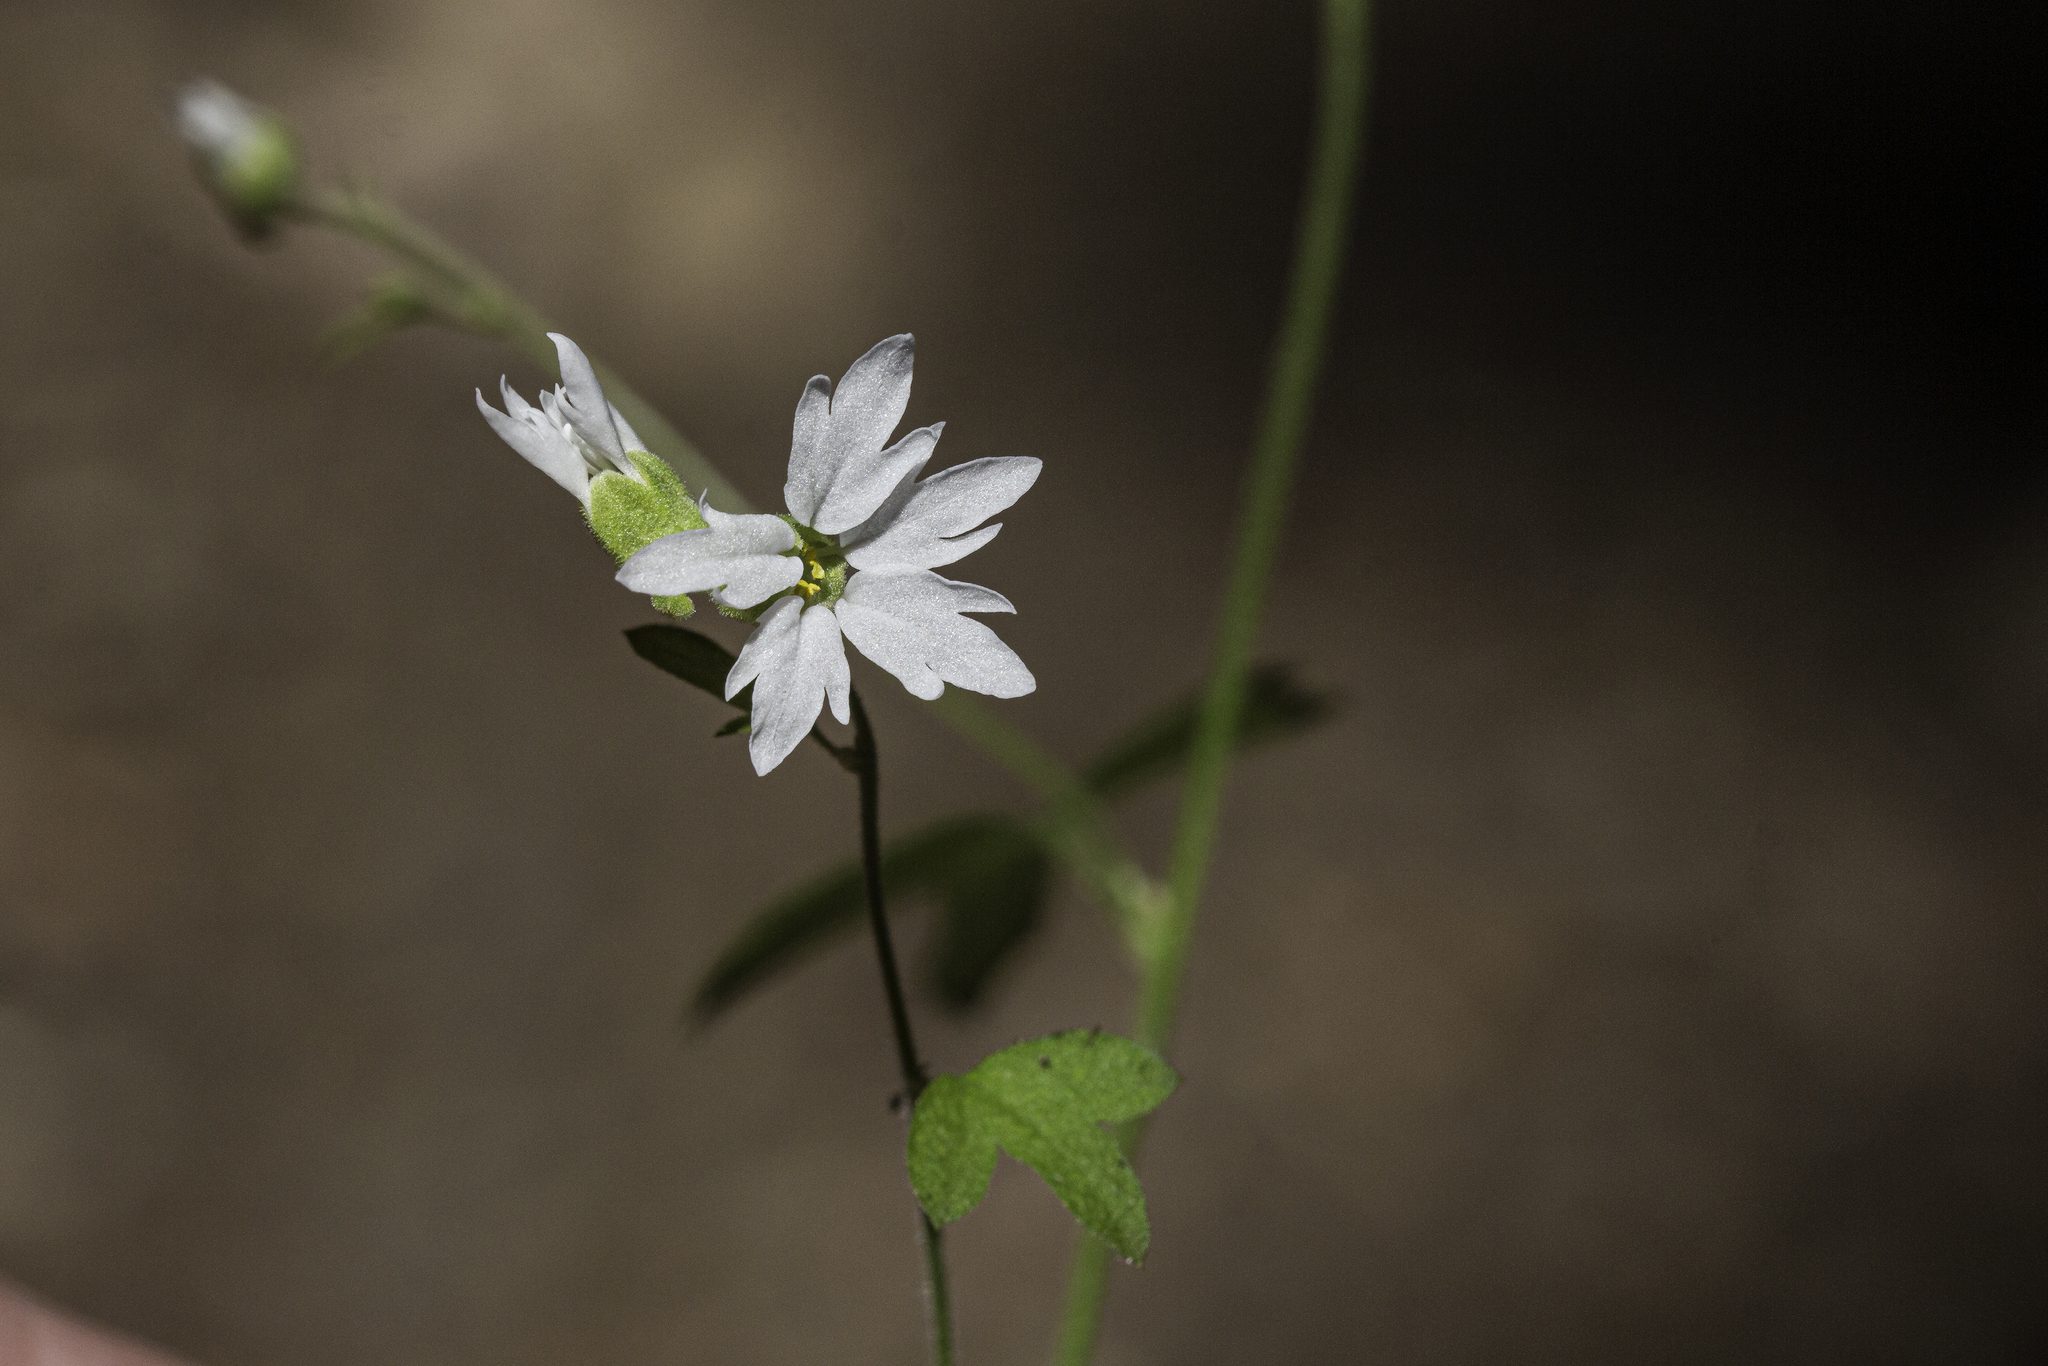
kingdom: Plantae
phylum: Tracheophyta
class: Magnoliopsida
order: Saxifragales
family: Saxifragaceae
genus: Lithophragma
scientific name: Lithophragma heterophyllum
